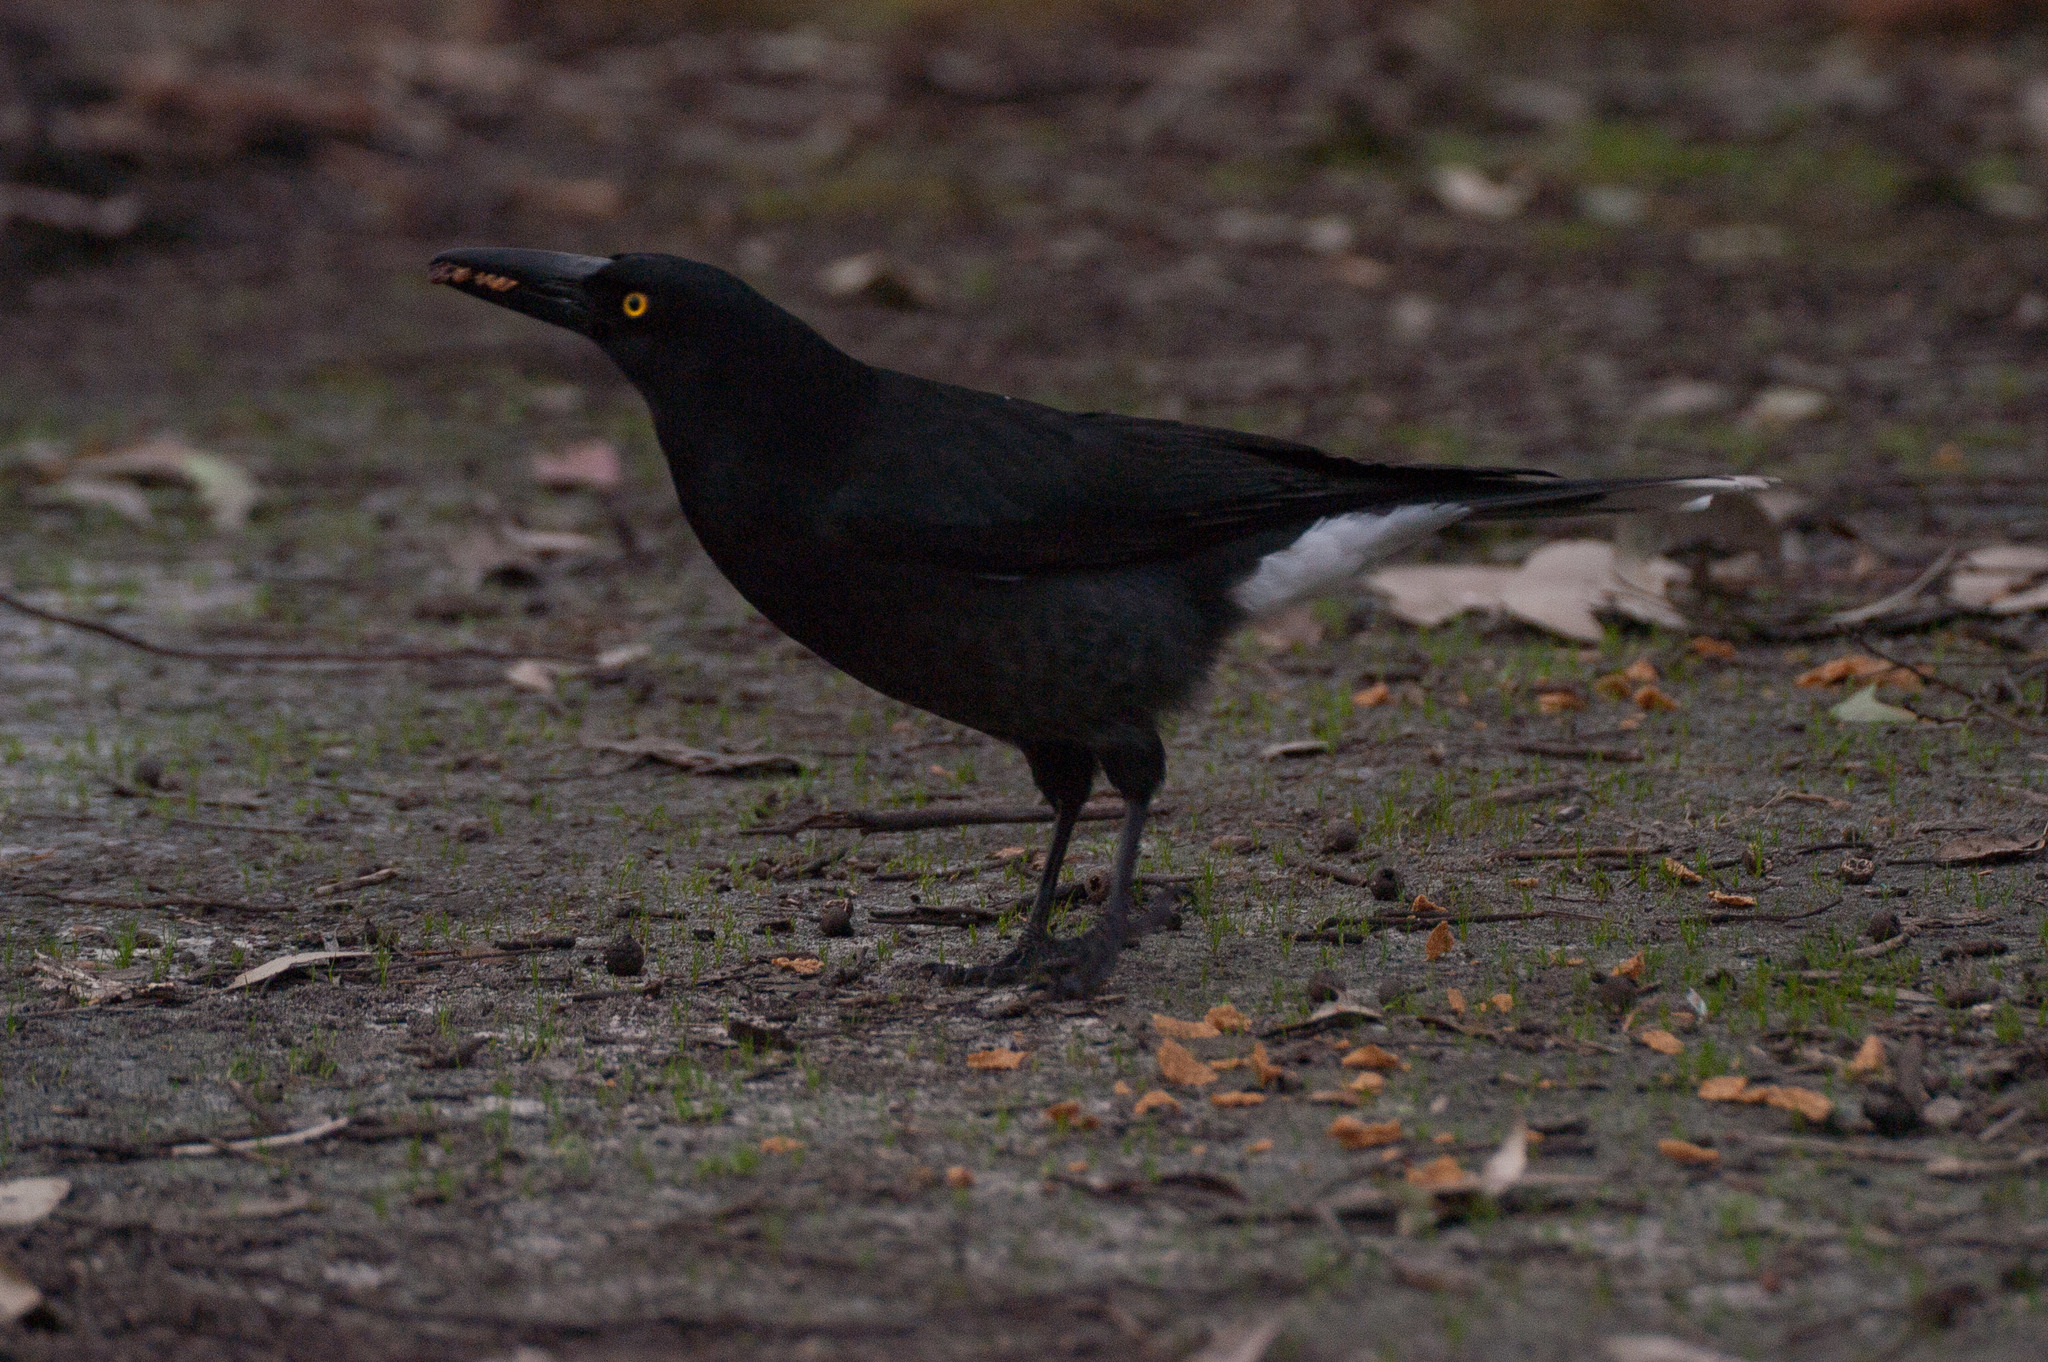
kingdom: Animalia
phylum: Chordata
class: Aves
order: Passeriformes
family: Cracticidae
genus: Strepera
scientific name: Strepera versicolor
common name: Grey currawong
